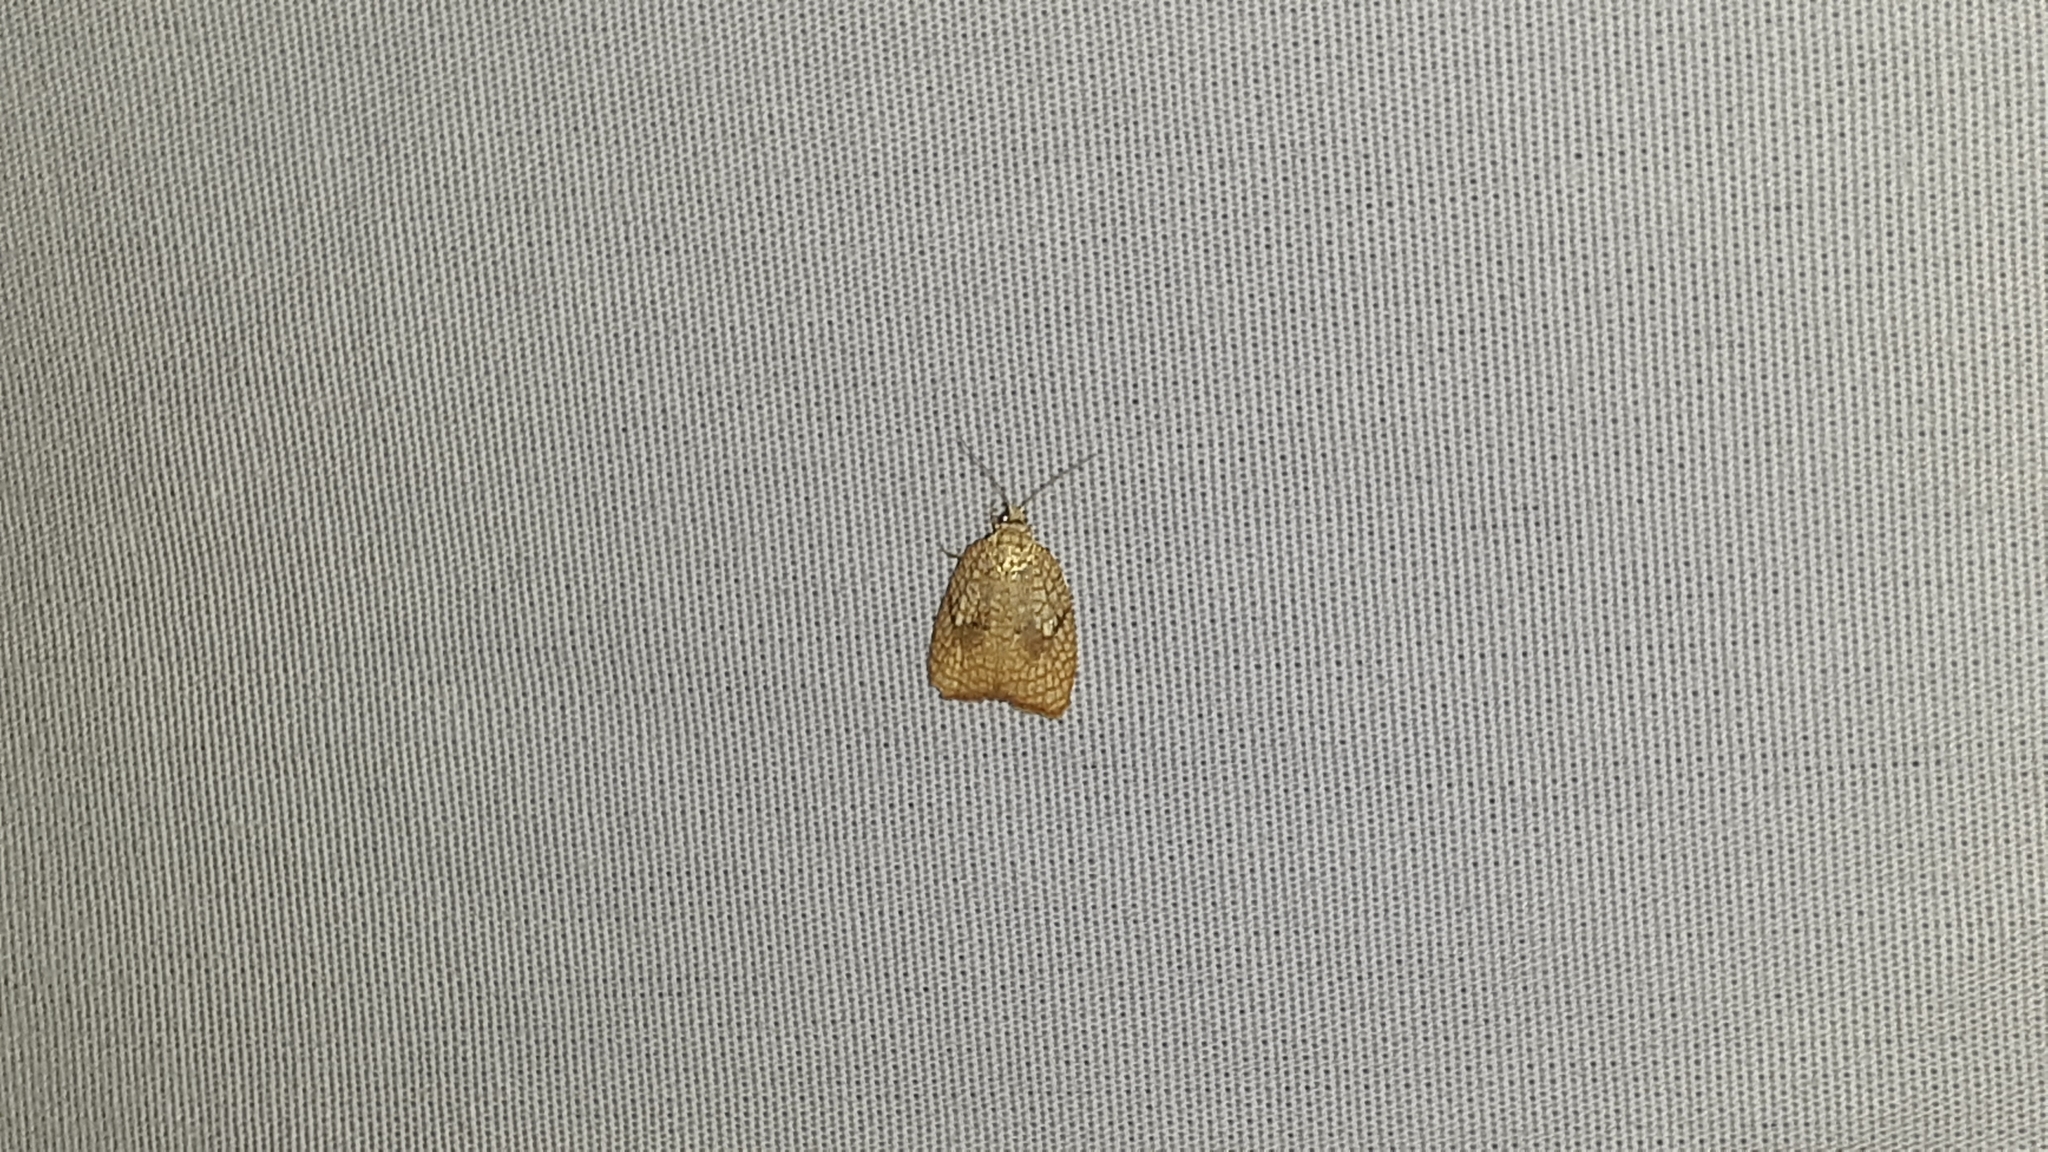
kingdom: Animalia
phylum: Arthropoda
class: Insecta
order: Lepidoptera
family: Tortricidae
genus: Acleris
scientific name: Acleris forsskaleana
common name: Maple button
